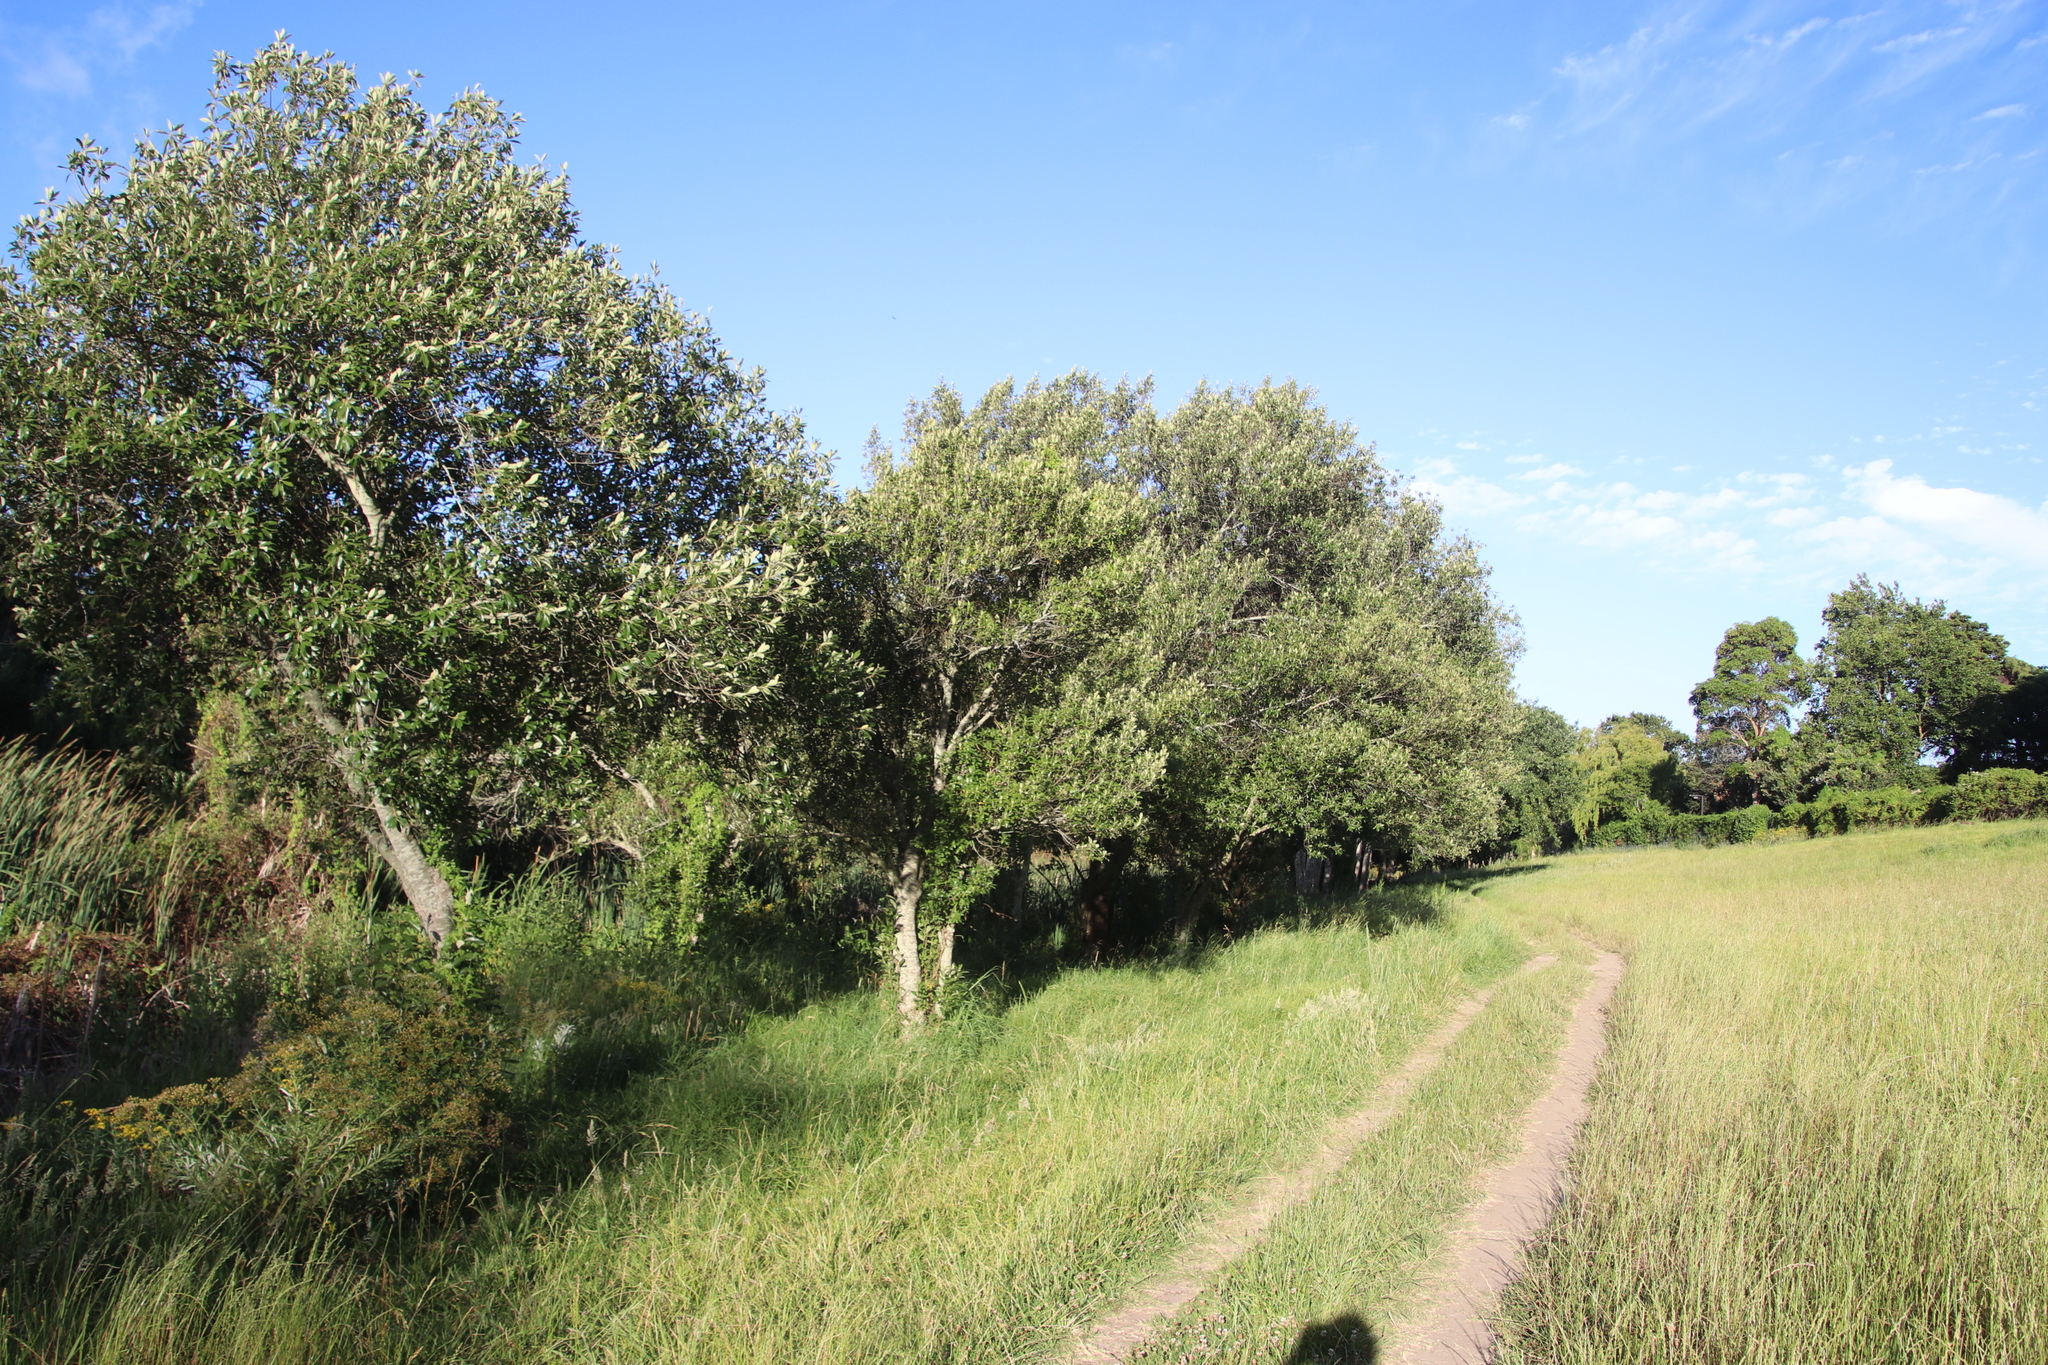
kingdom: Plantae
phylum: Tracheophyta
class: Magnoliopsida
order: Malpighiales
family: Achariaceae
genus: Kiggelaria
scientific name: Kiggelaria africana
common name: Wild peach
